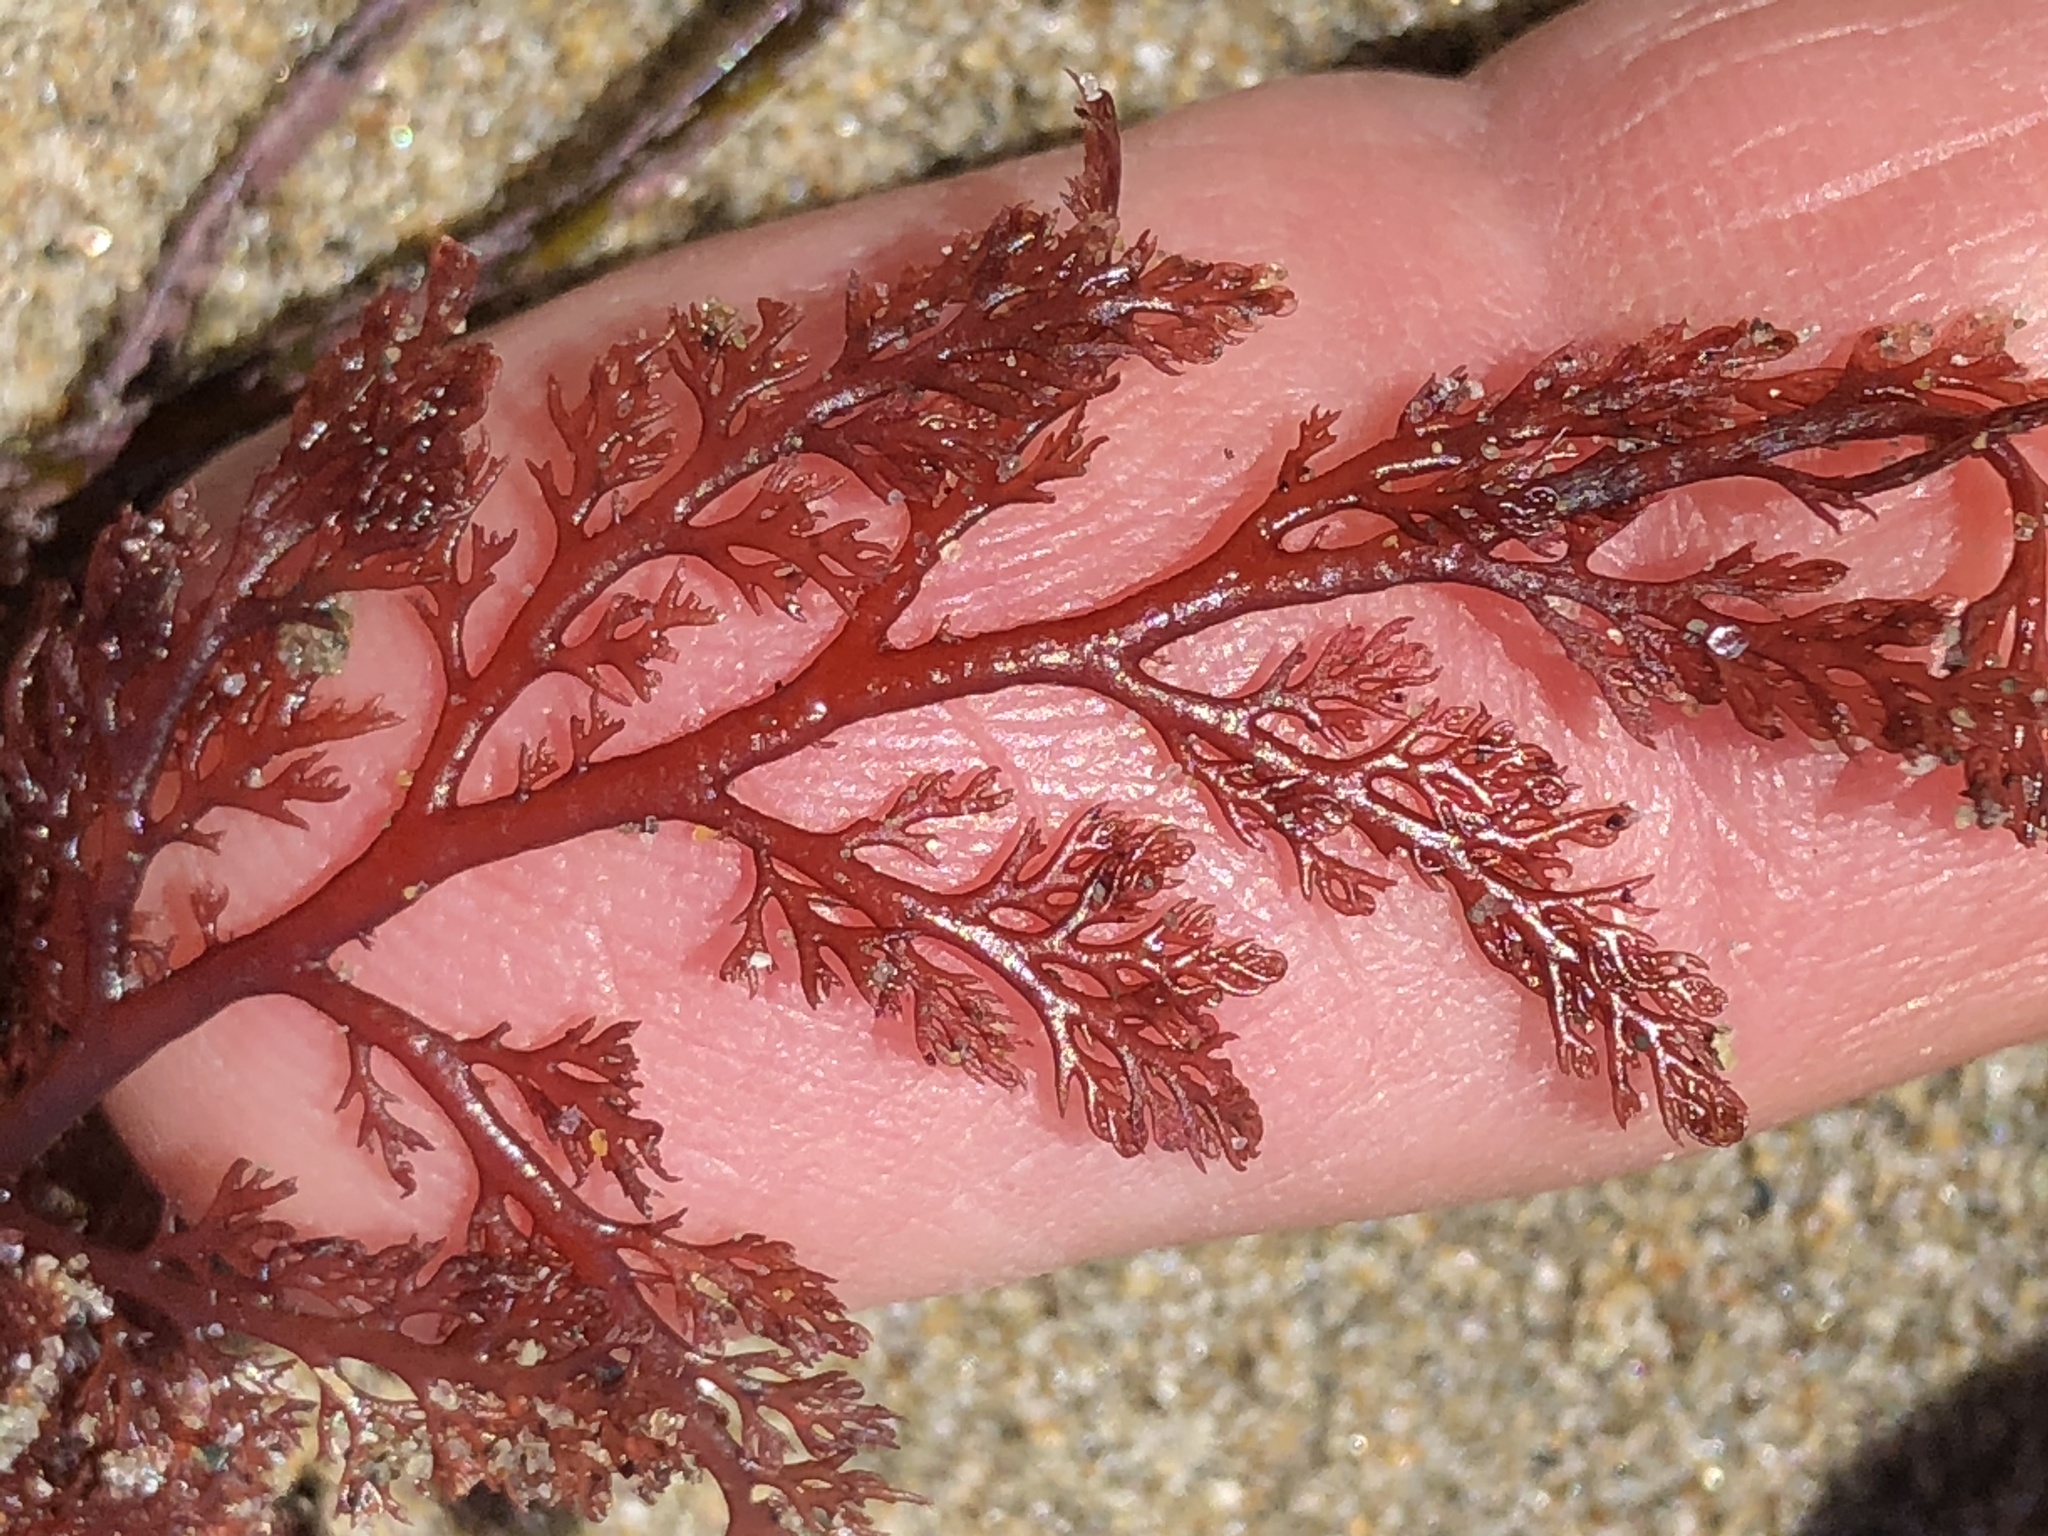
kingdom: Plantae
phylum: Rhodophyta
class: Florideophyceae
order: Ceramiales
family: Ceramiaceae
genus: Microcladia
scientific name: Microcladia coulteri
